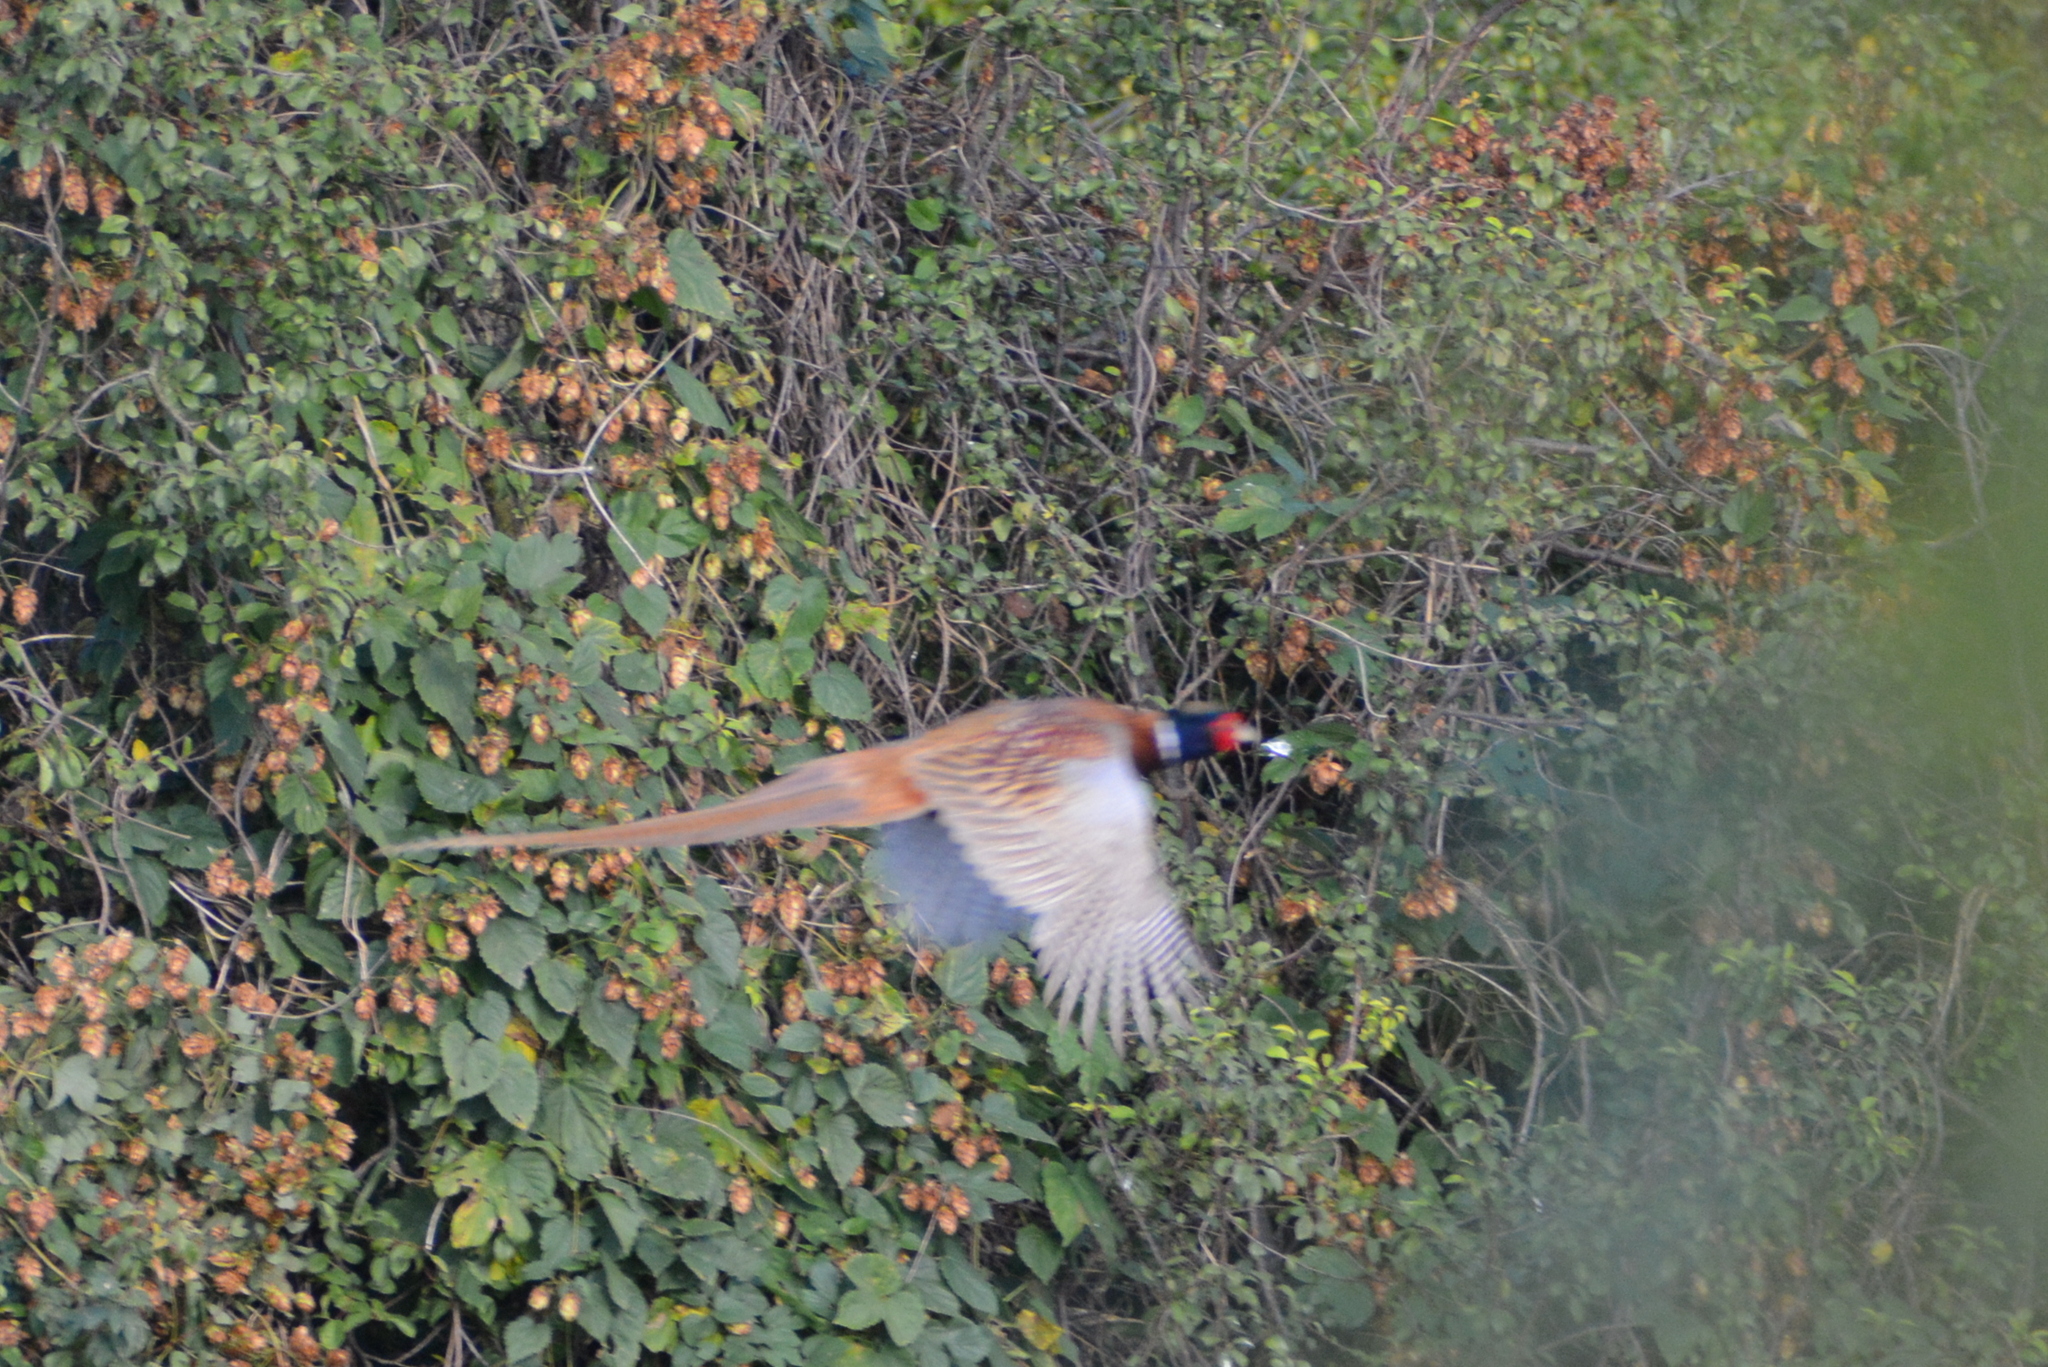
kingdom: Animalia
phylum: Chordata
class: Aves
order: Galliformes
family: Phasianidae
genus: Phasianus
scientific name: Phasianus colchicus
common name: Common pheasant
